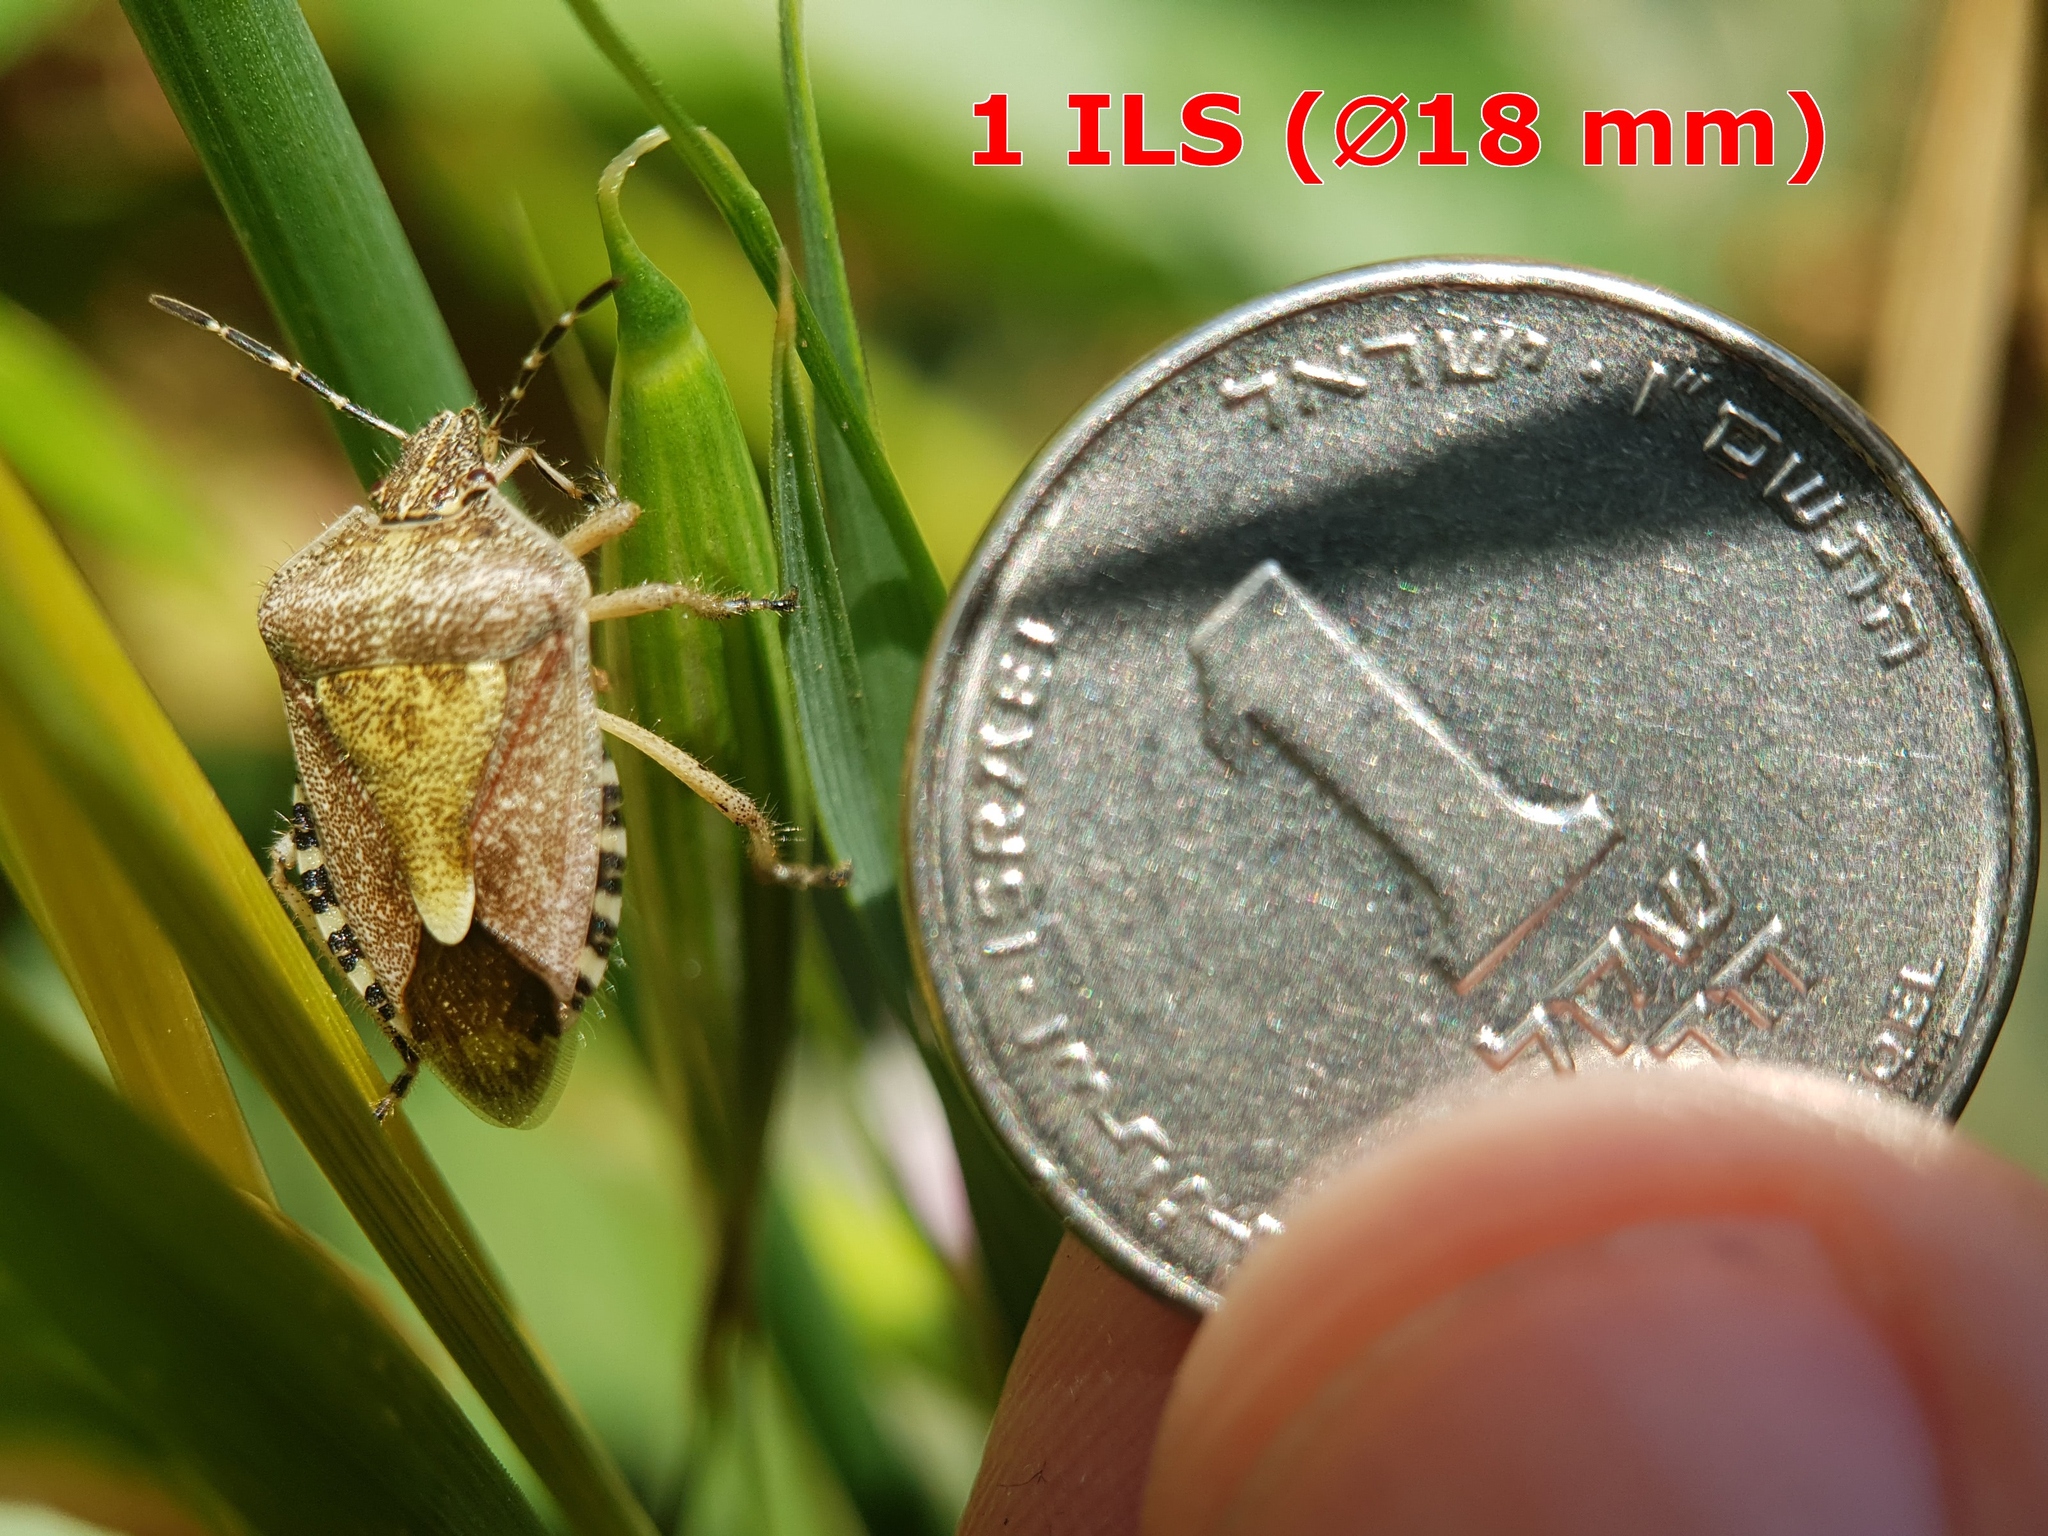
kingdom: Animalia
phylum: Arthropoda
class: Insecta
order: Hemiptera
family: Pentatomidae
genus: Dolycoris
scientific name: Dolycoris baccarum
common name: Sloe bug
